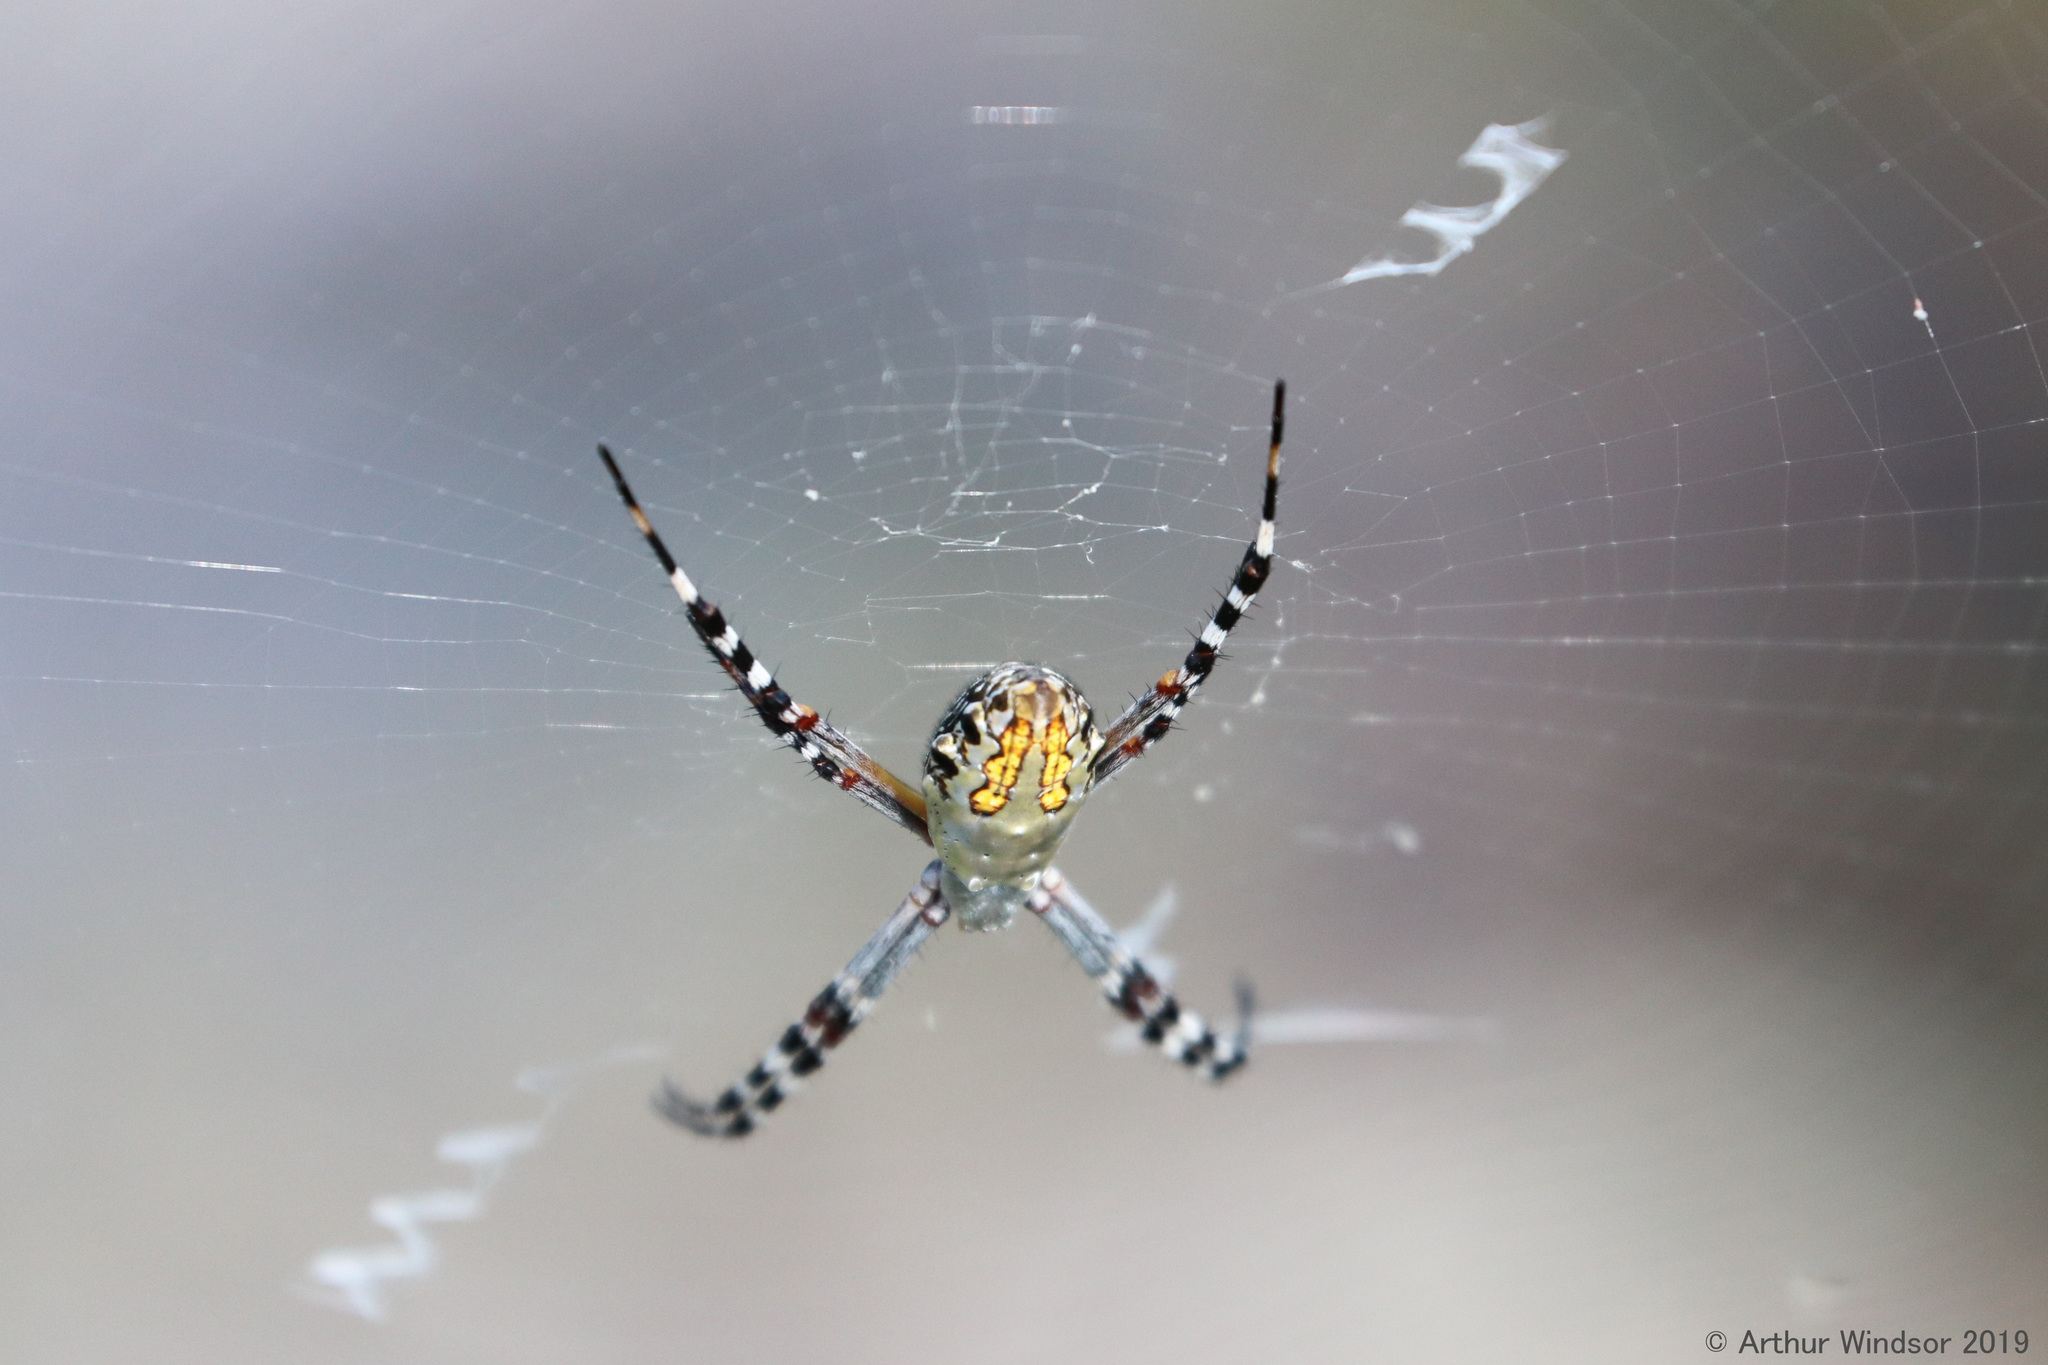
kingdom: Animalia
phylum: Arthropoda
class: Arachnida
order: Araneae
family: Araneidae
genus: Argiope
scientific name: Argiope florida
